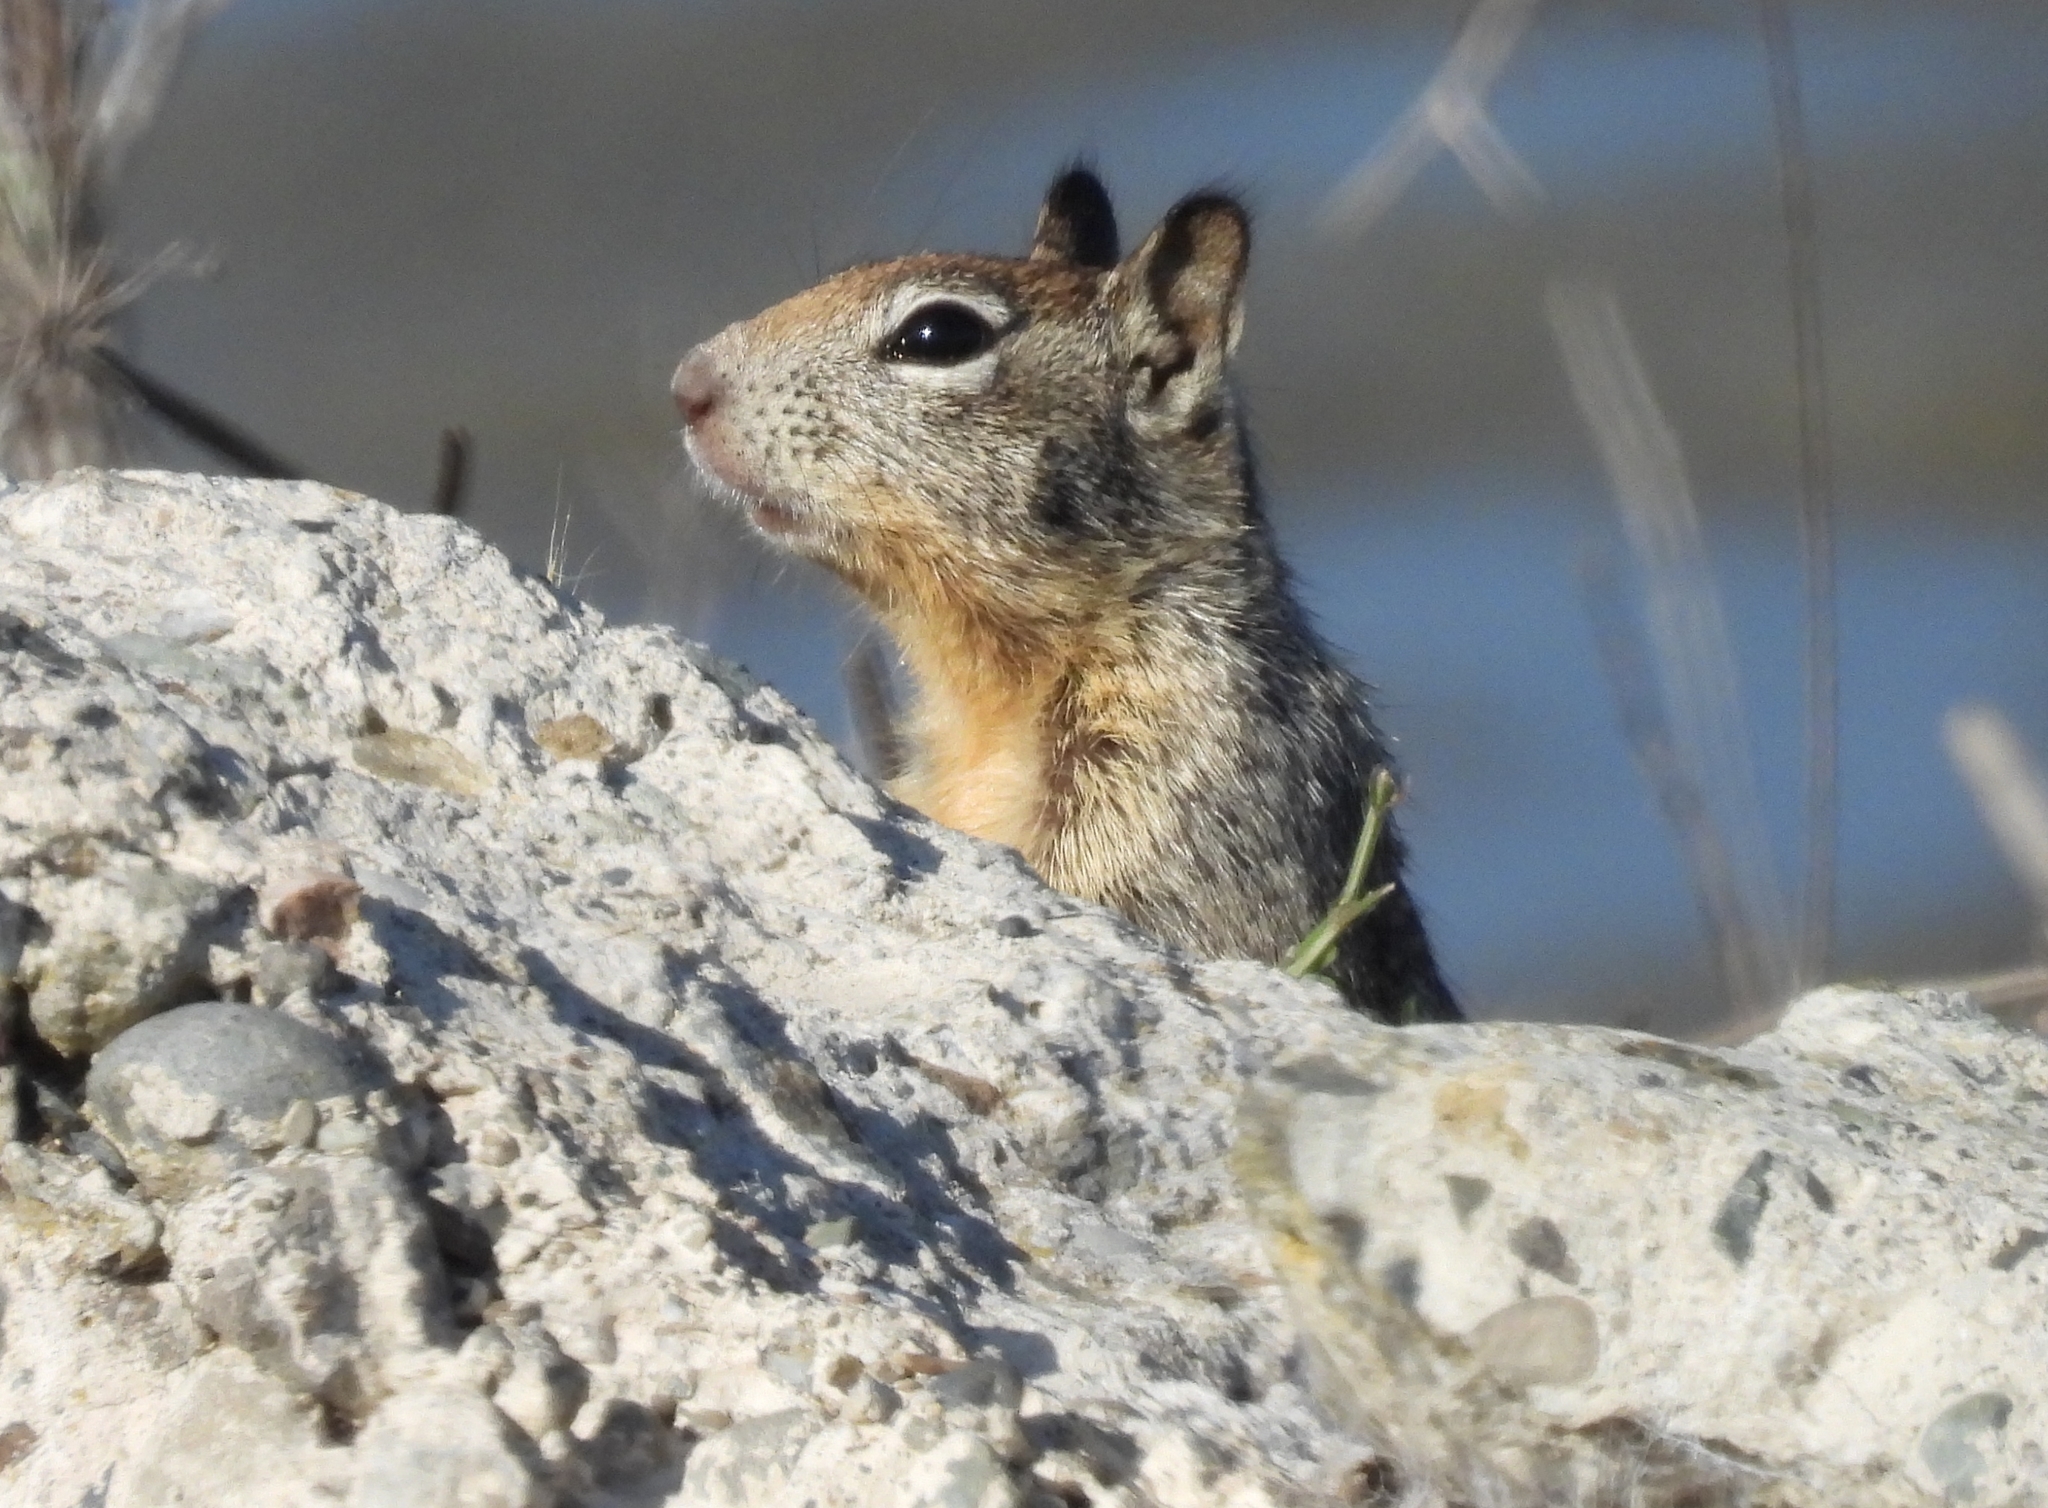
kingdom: Animalia
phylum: Chordata
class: Mammalia
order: Rodentia
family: Sciuridae
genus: Otospermophilus
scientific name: Otospermophilus beecheyi
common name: California ground squirrel
